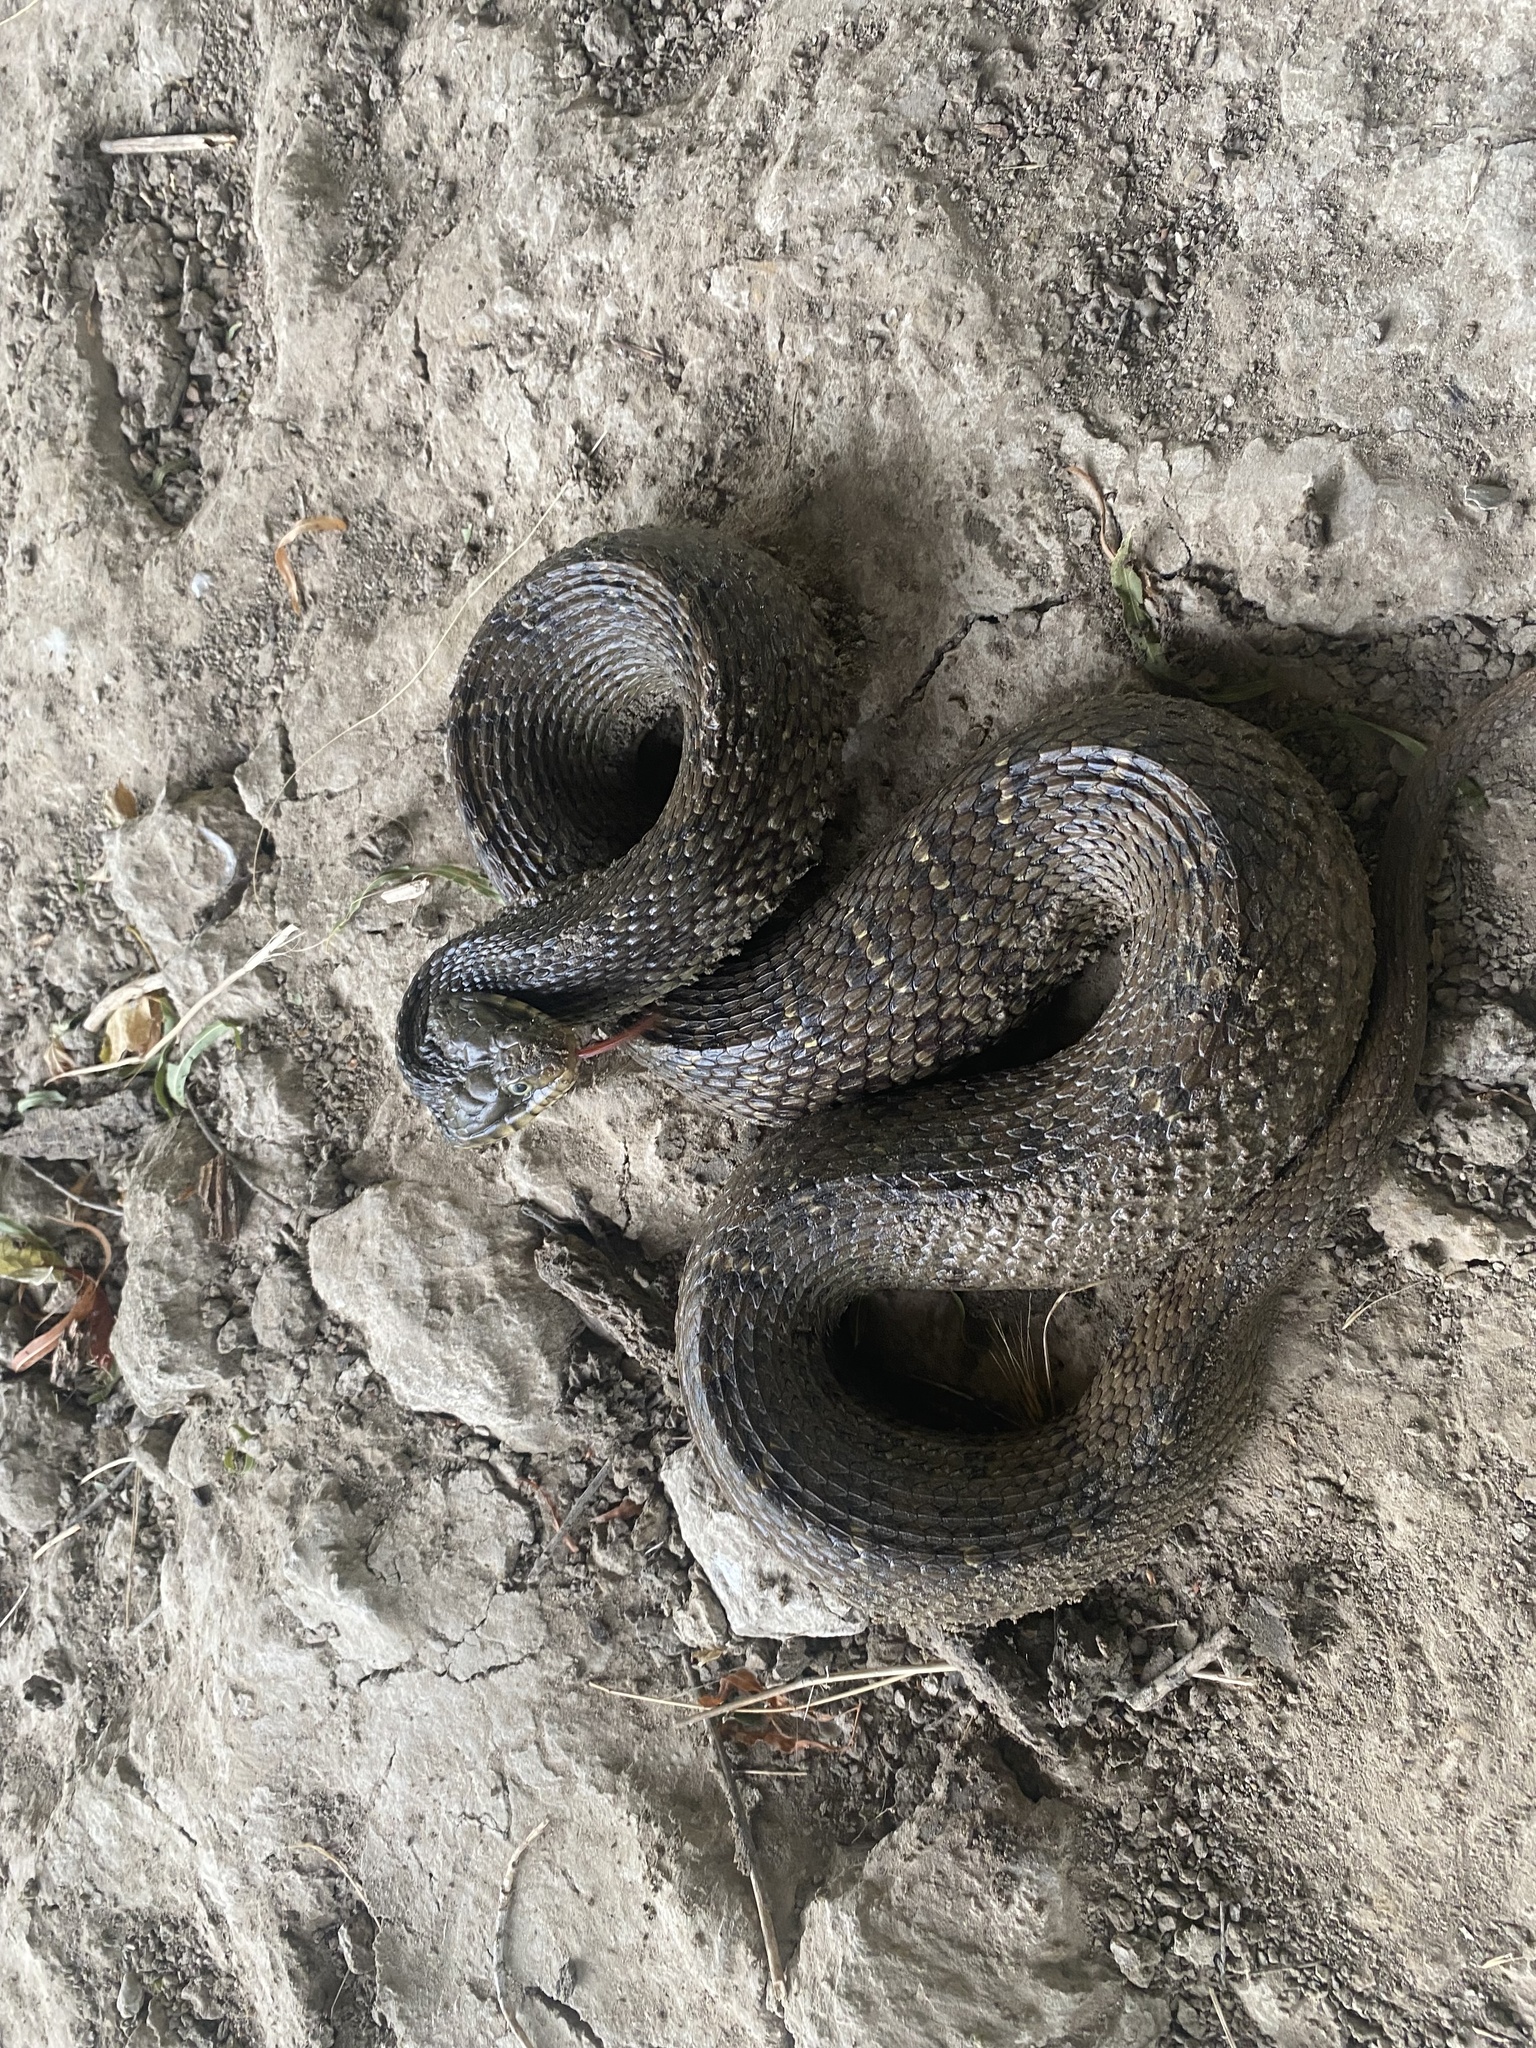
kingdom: Animalia
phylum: Chordata
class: Squamata
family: Colubridae
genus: Nerodia
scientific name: Nerodia erythrogaster
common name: Plainbelly water snake
